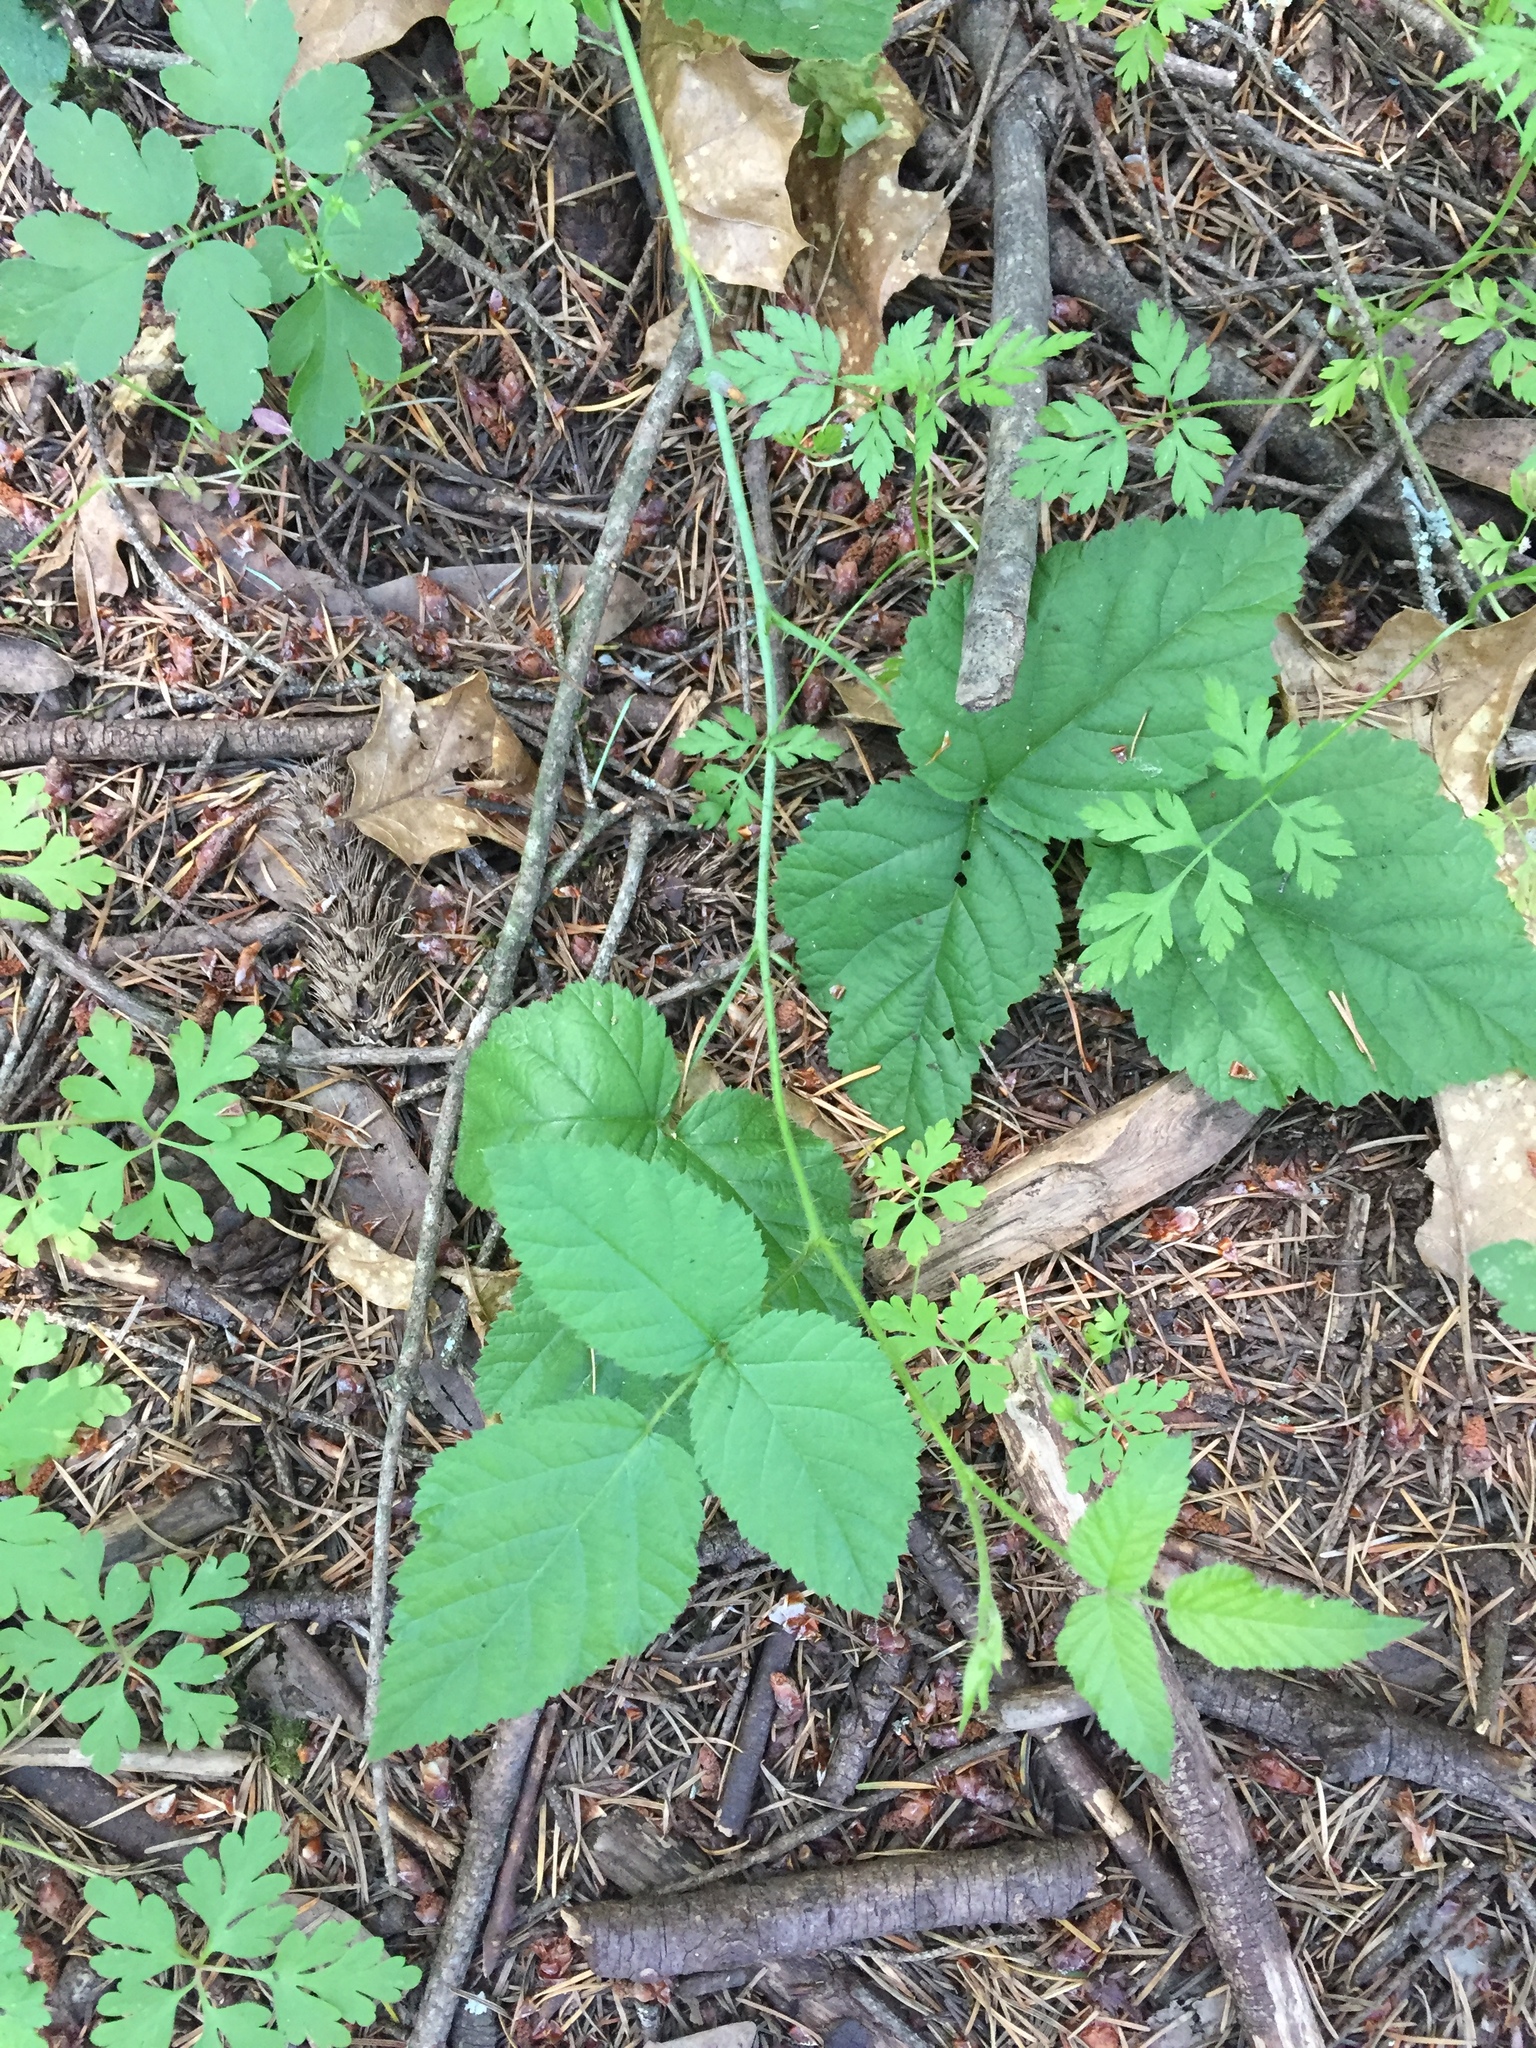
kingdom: Plantae
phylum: Tracheophyta
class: Magnoliopsida
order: Rosales
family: Rosaceae
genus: Rubus
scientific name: Rubus ursinus
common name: Pacific blackberry
